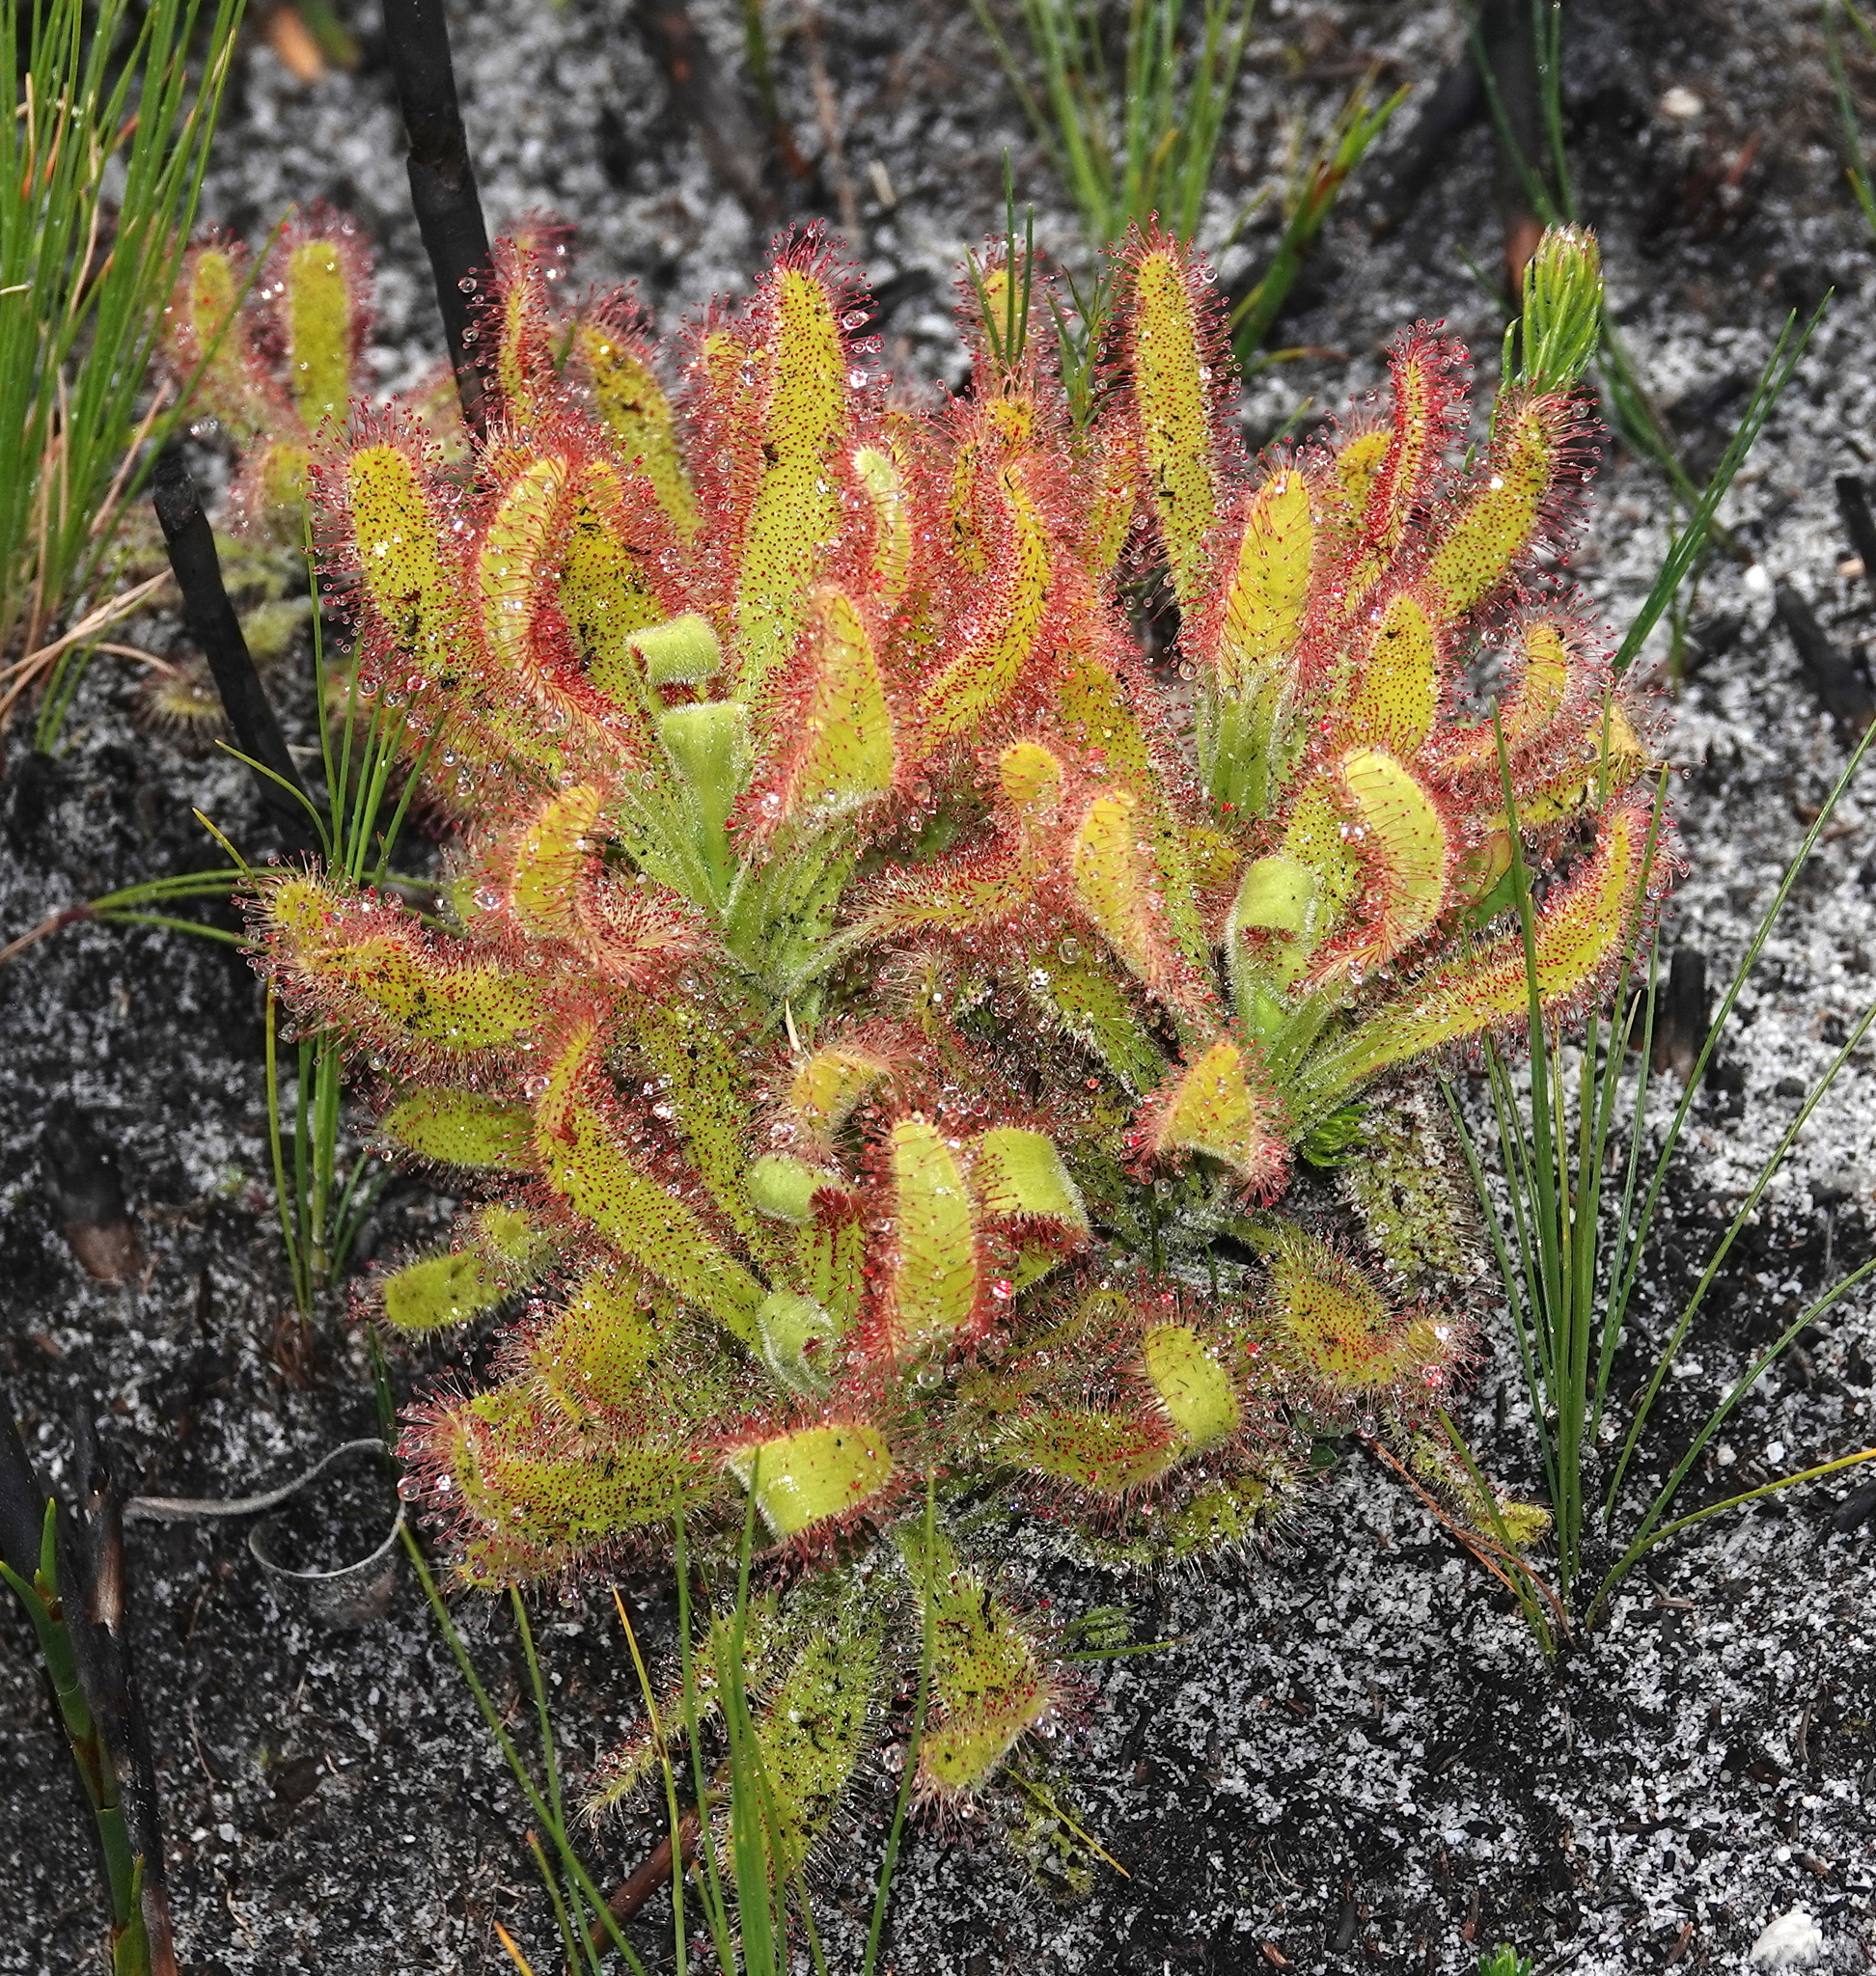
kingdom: Plantae
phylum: Tracheophyta
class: Magnoliopsida
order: Caryophyllales
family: Droseraceae
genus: Drosera
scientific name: Drosera hilaris
